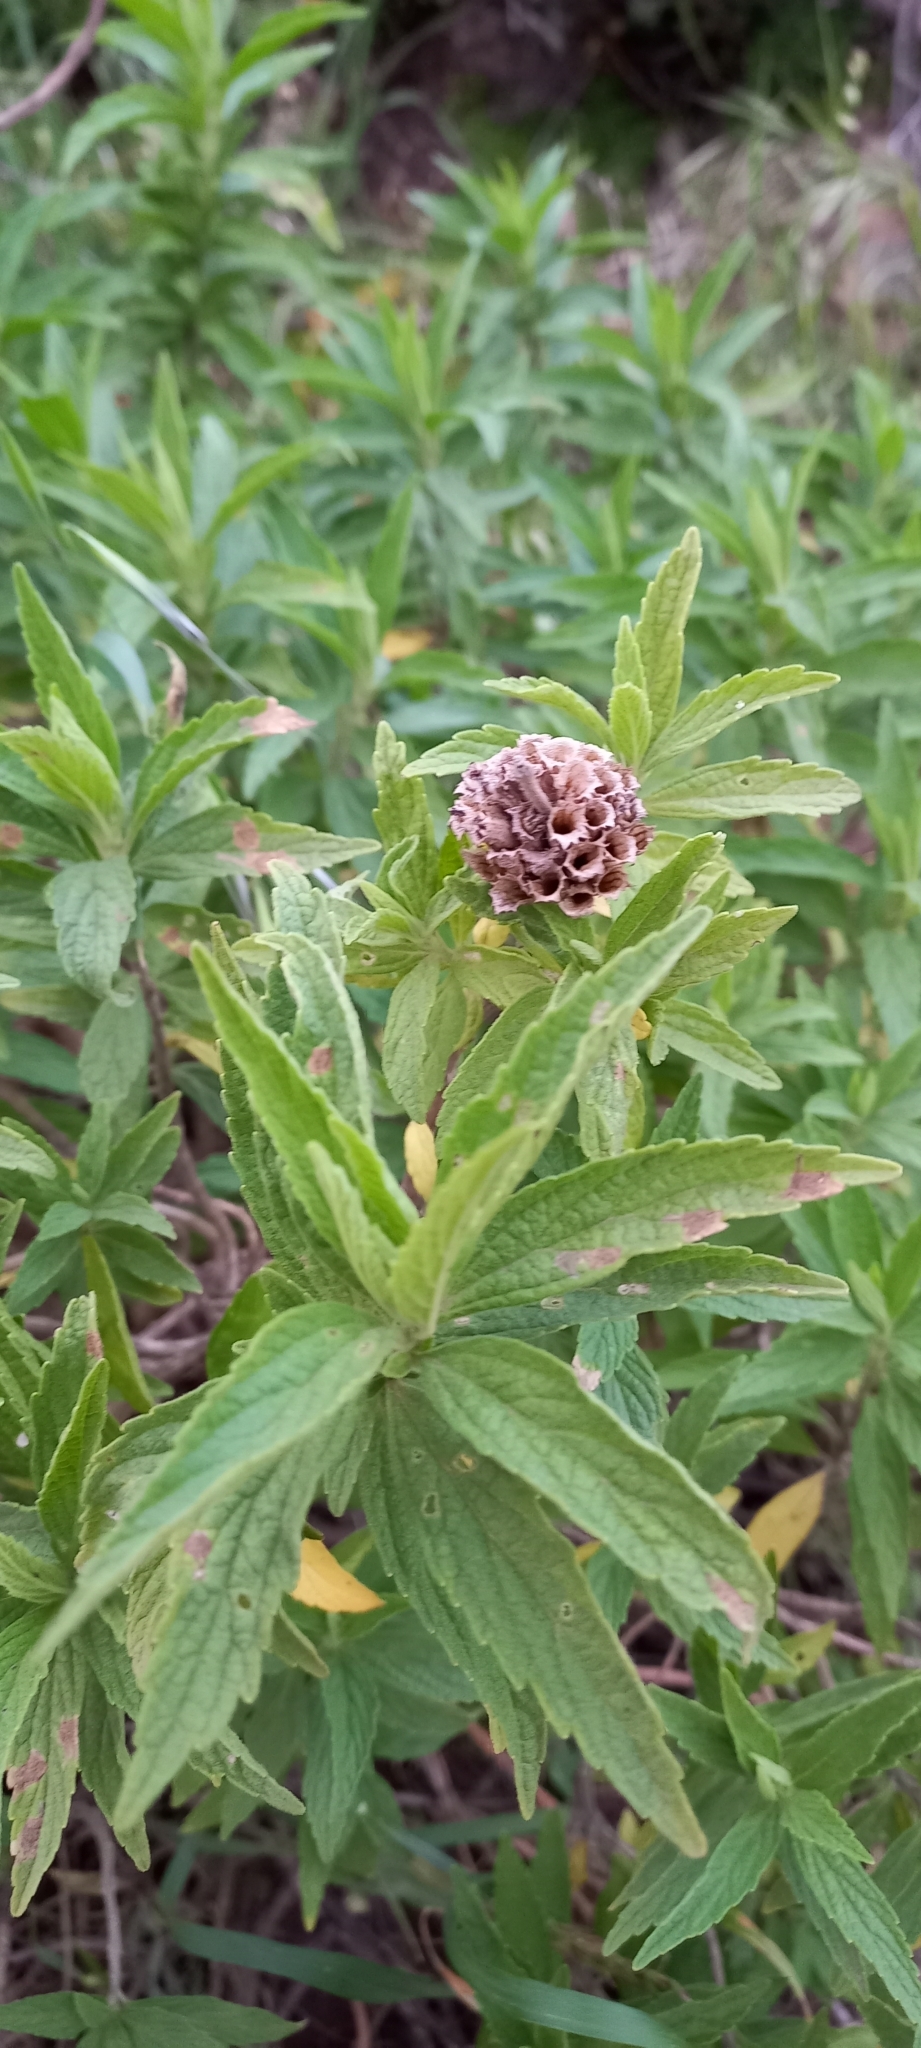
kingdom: Plantae
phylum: Tracheophyta
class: Magnoliopsida
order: Lamiales
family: Lamiaceae
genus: Leonotis
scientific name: Leonotis leonurus
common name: Lion's ear
